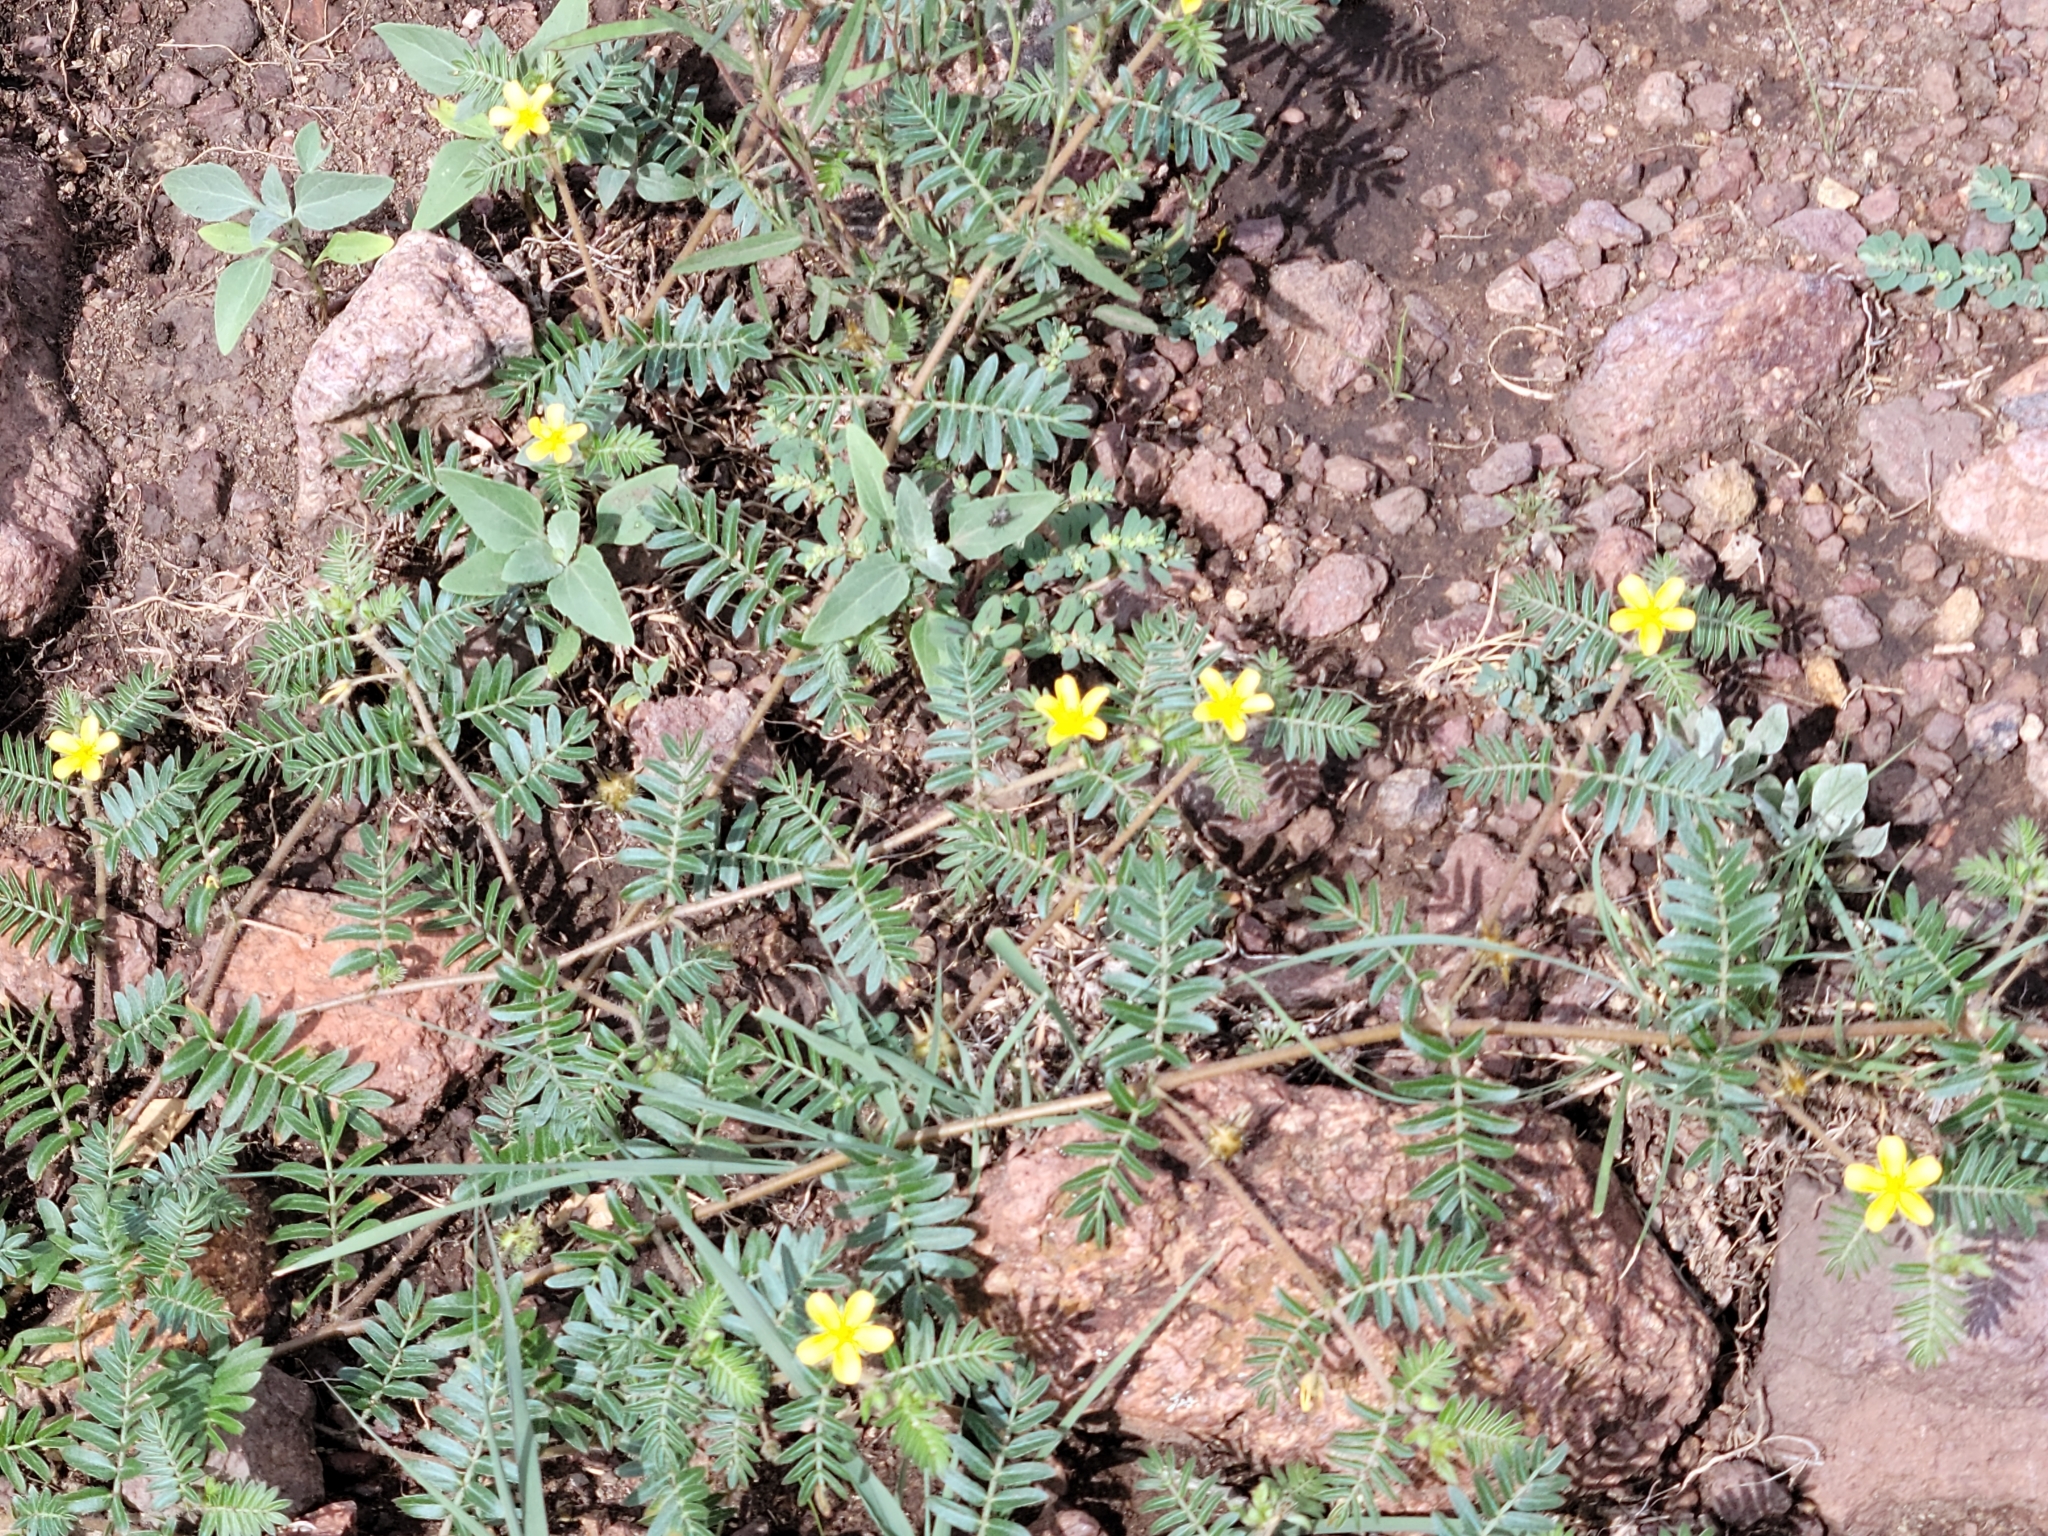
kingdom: Plantae
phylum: Tracheophyta
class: Magnoliopsida
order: Zygophyllales
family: Zygophyllaceae
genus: Tribulus
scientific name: Tribulus terrestris
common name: Puncturevine
